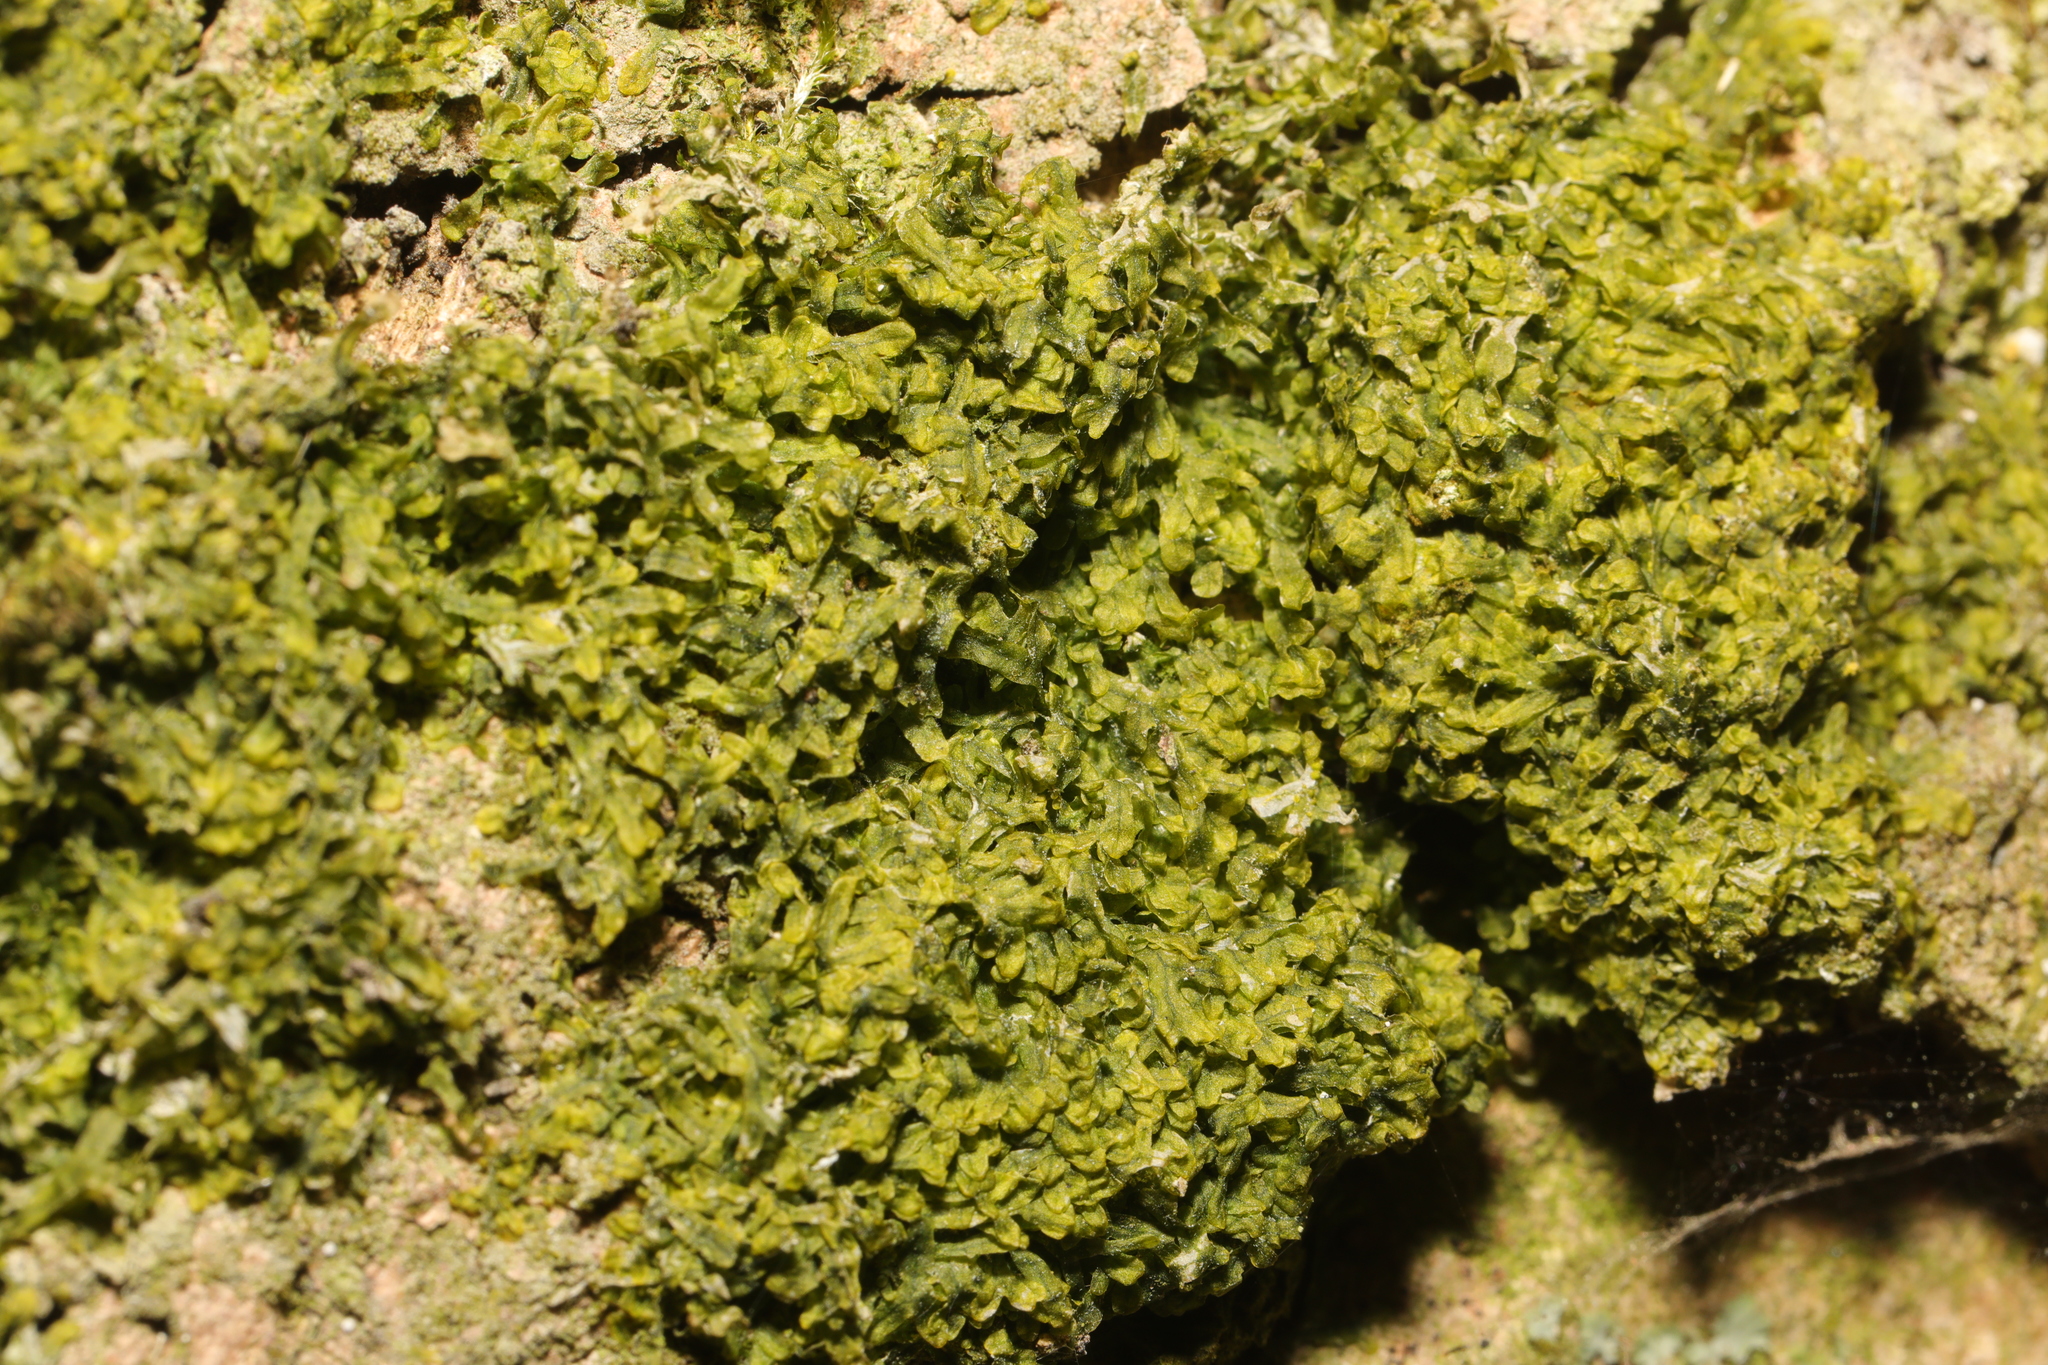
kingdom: Plantae
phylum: Marchantiophyta
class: Jungermanniopsida
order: Metzgeriales
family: Metzgeriaceae
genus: Metzgeria
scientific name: Metzgeria furcata
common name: Forked veilwort
